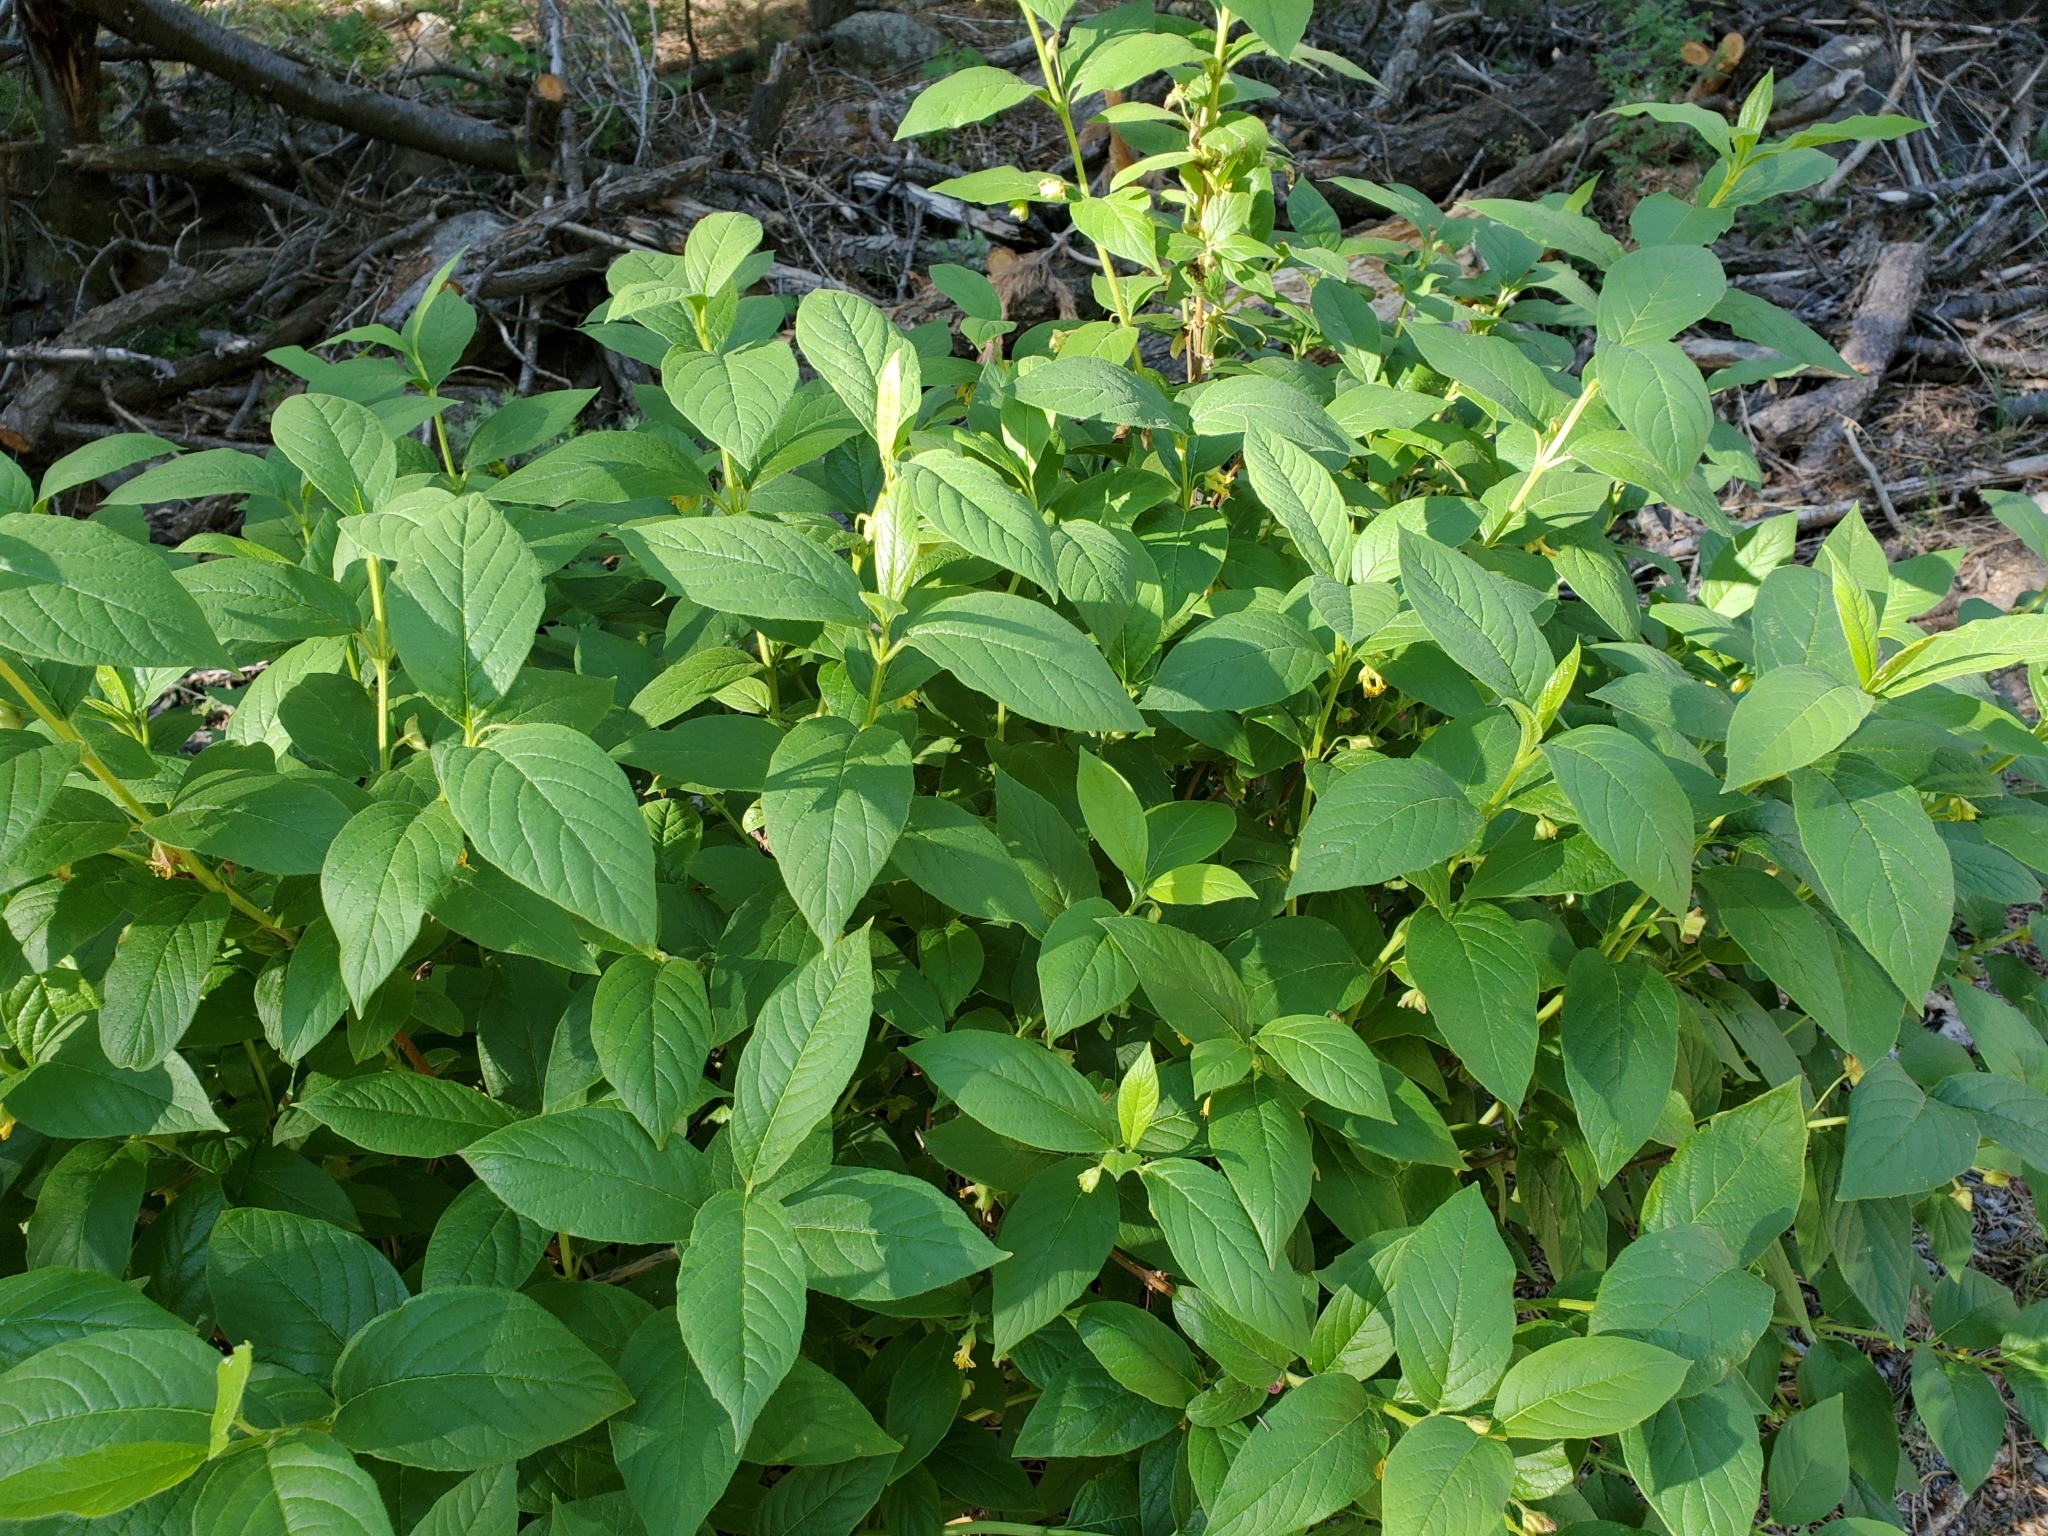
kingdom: Plantae
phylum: Tracheophyta
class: Magnoliopsida
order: Dipsacales
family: Caprifoliaceae
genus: Lonicera
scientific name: Lonicera involucrata
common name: Californian honeysuckle
